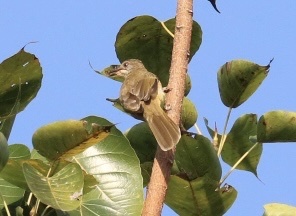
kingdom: Animalia
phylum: Chordata
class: Aves
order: Passeriformes
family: Pycnonotidae
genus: Pycnonotus
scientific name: Pycnonotus blanfordi
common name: Streak-eared bulbul
